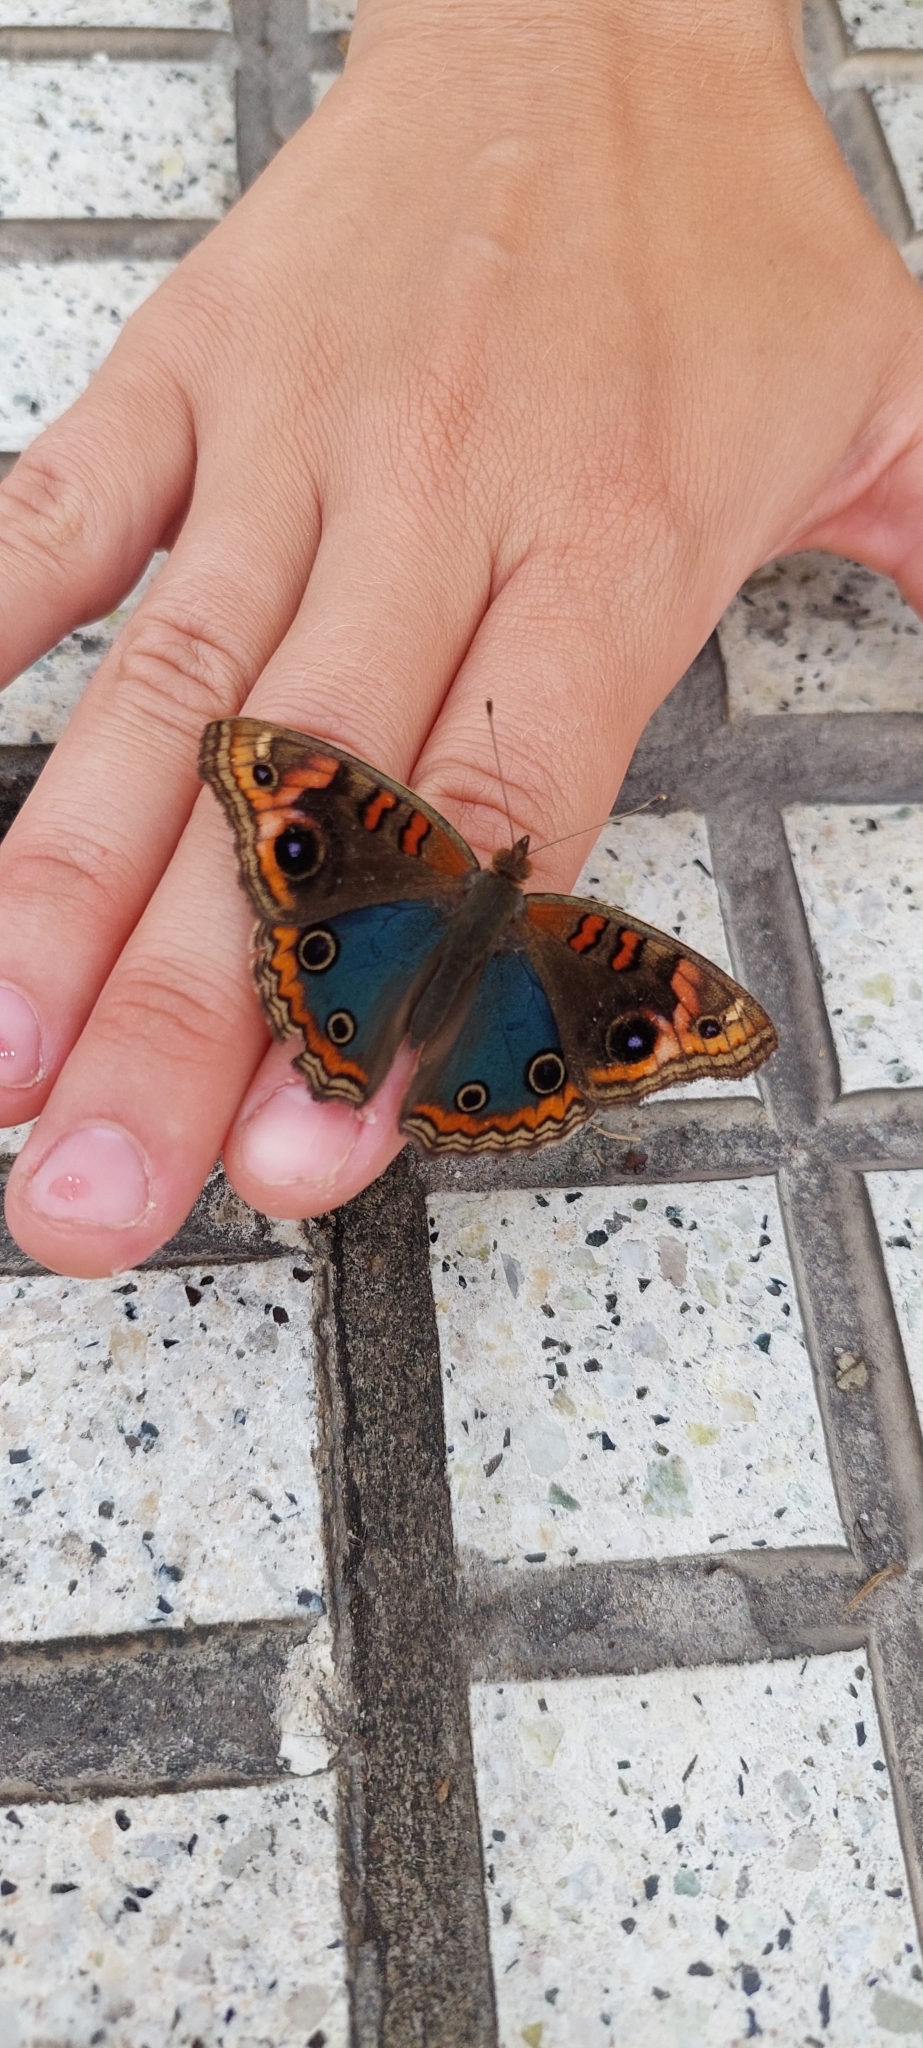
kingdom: Animalia
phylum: Arthropoda
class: Insecta
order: Lepidoptera
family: Nymphalidae
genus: Junonia
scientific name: Junonia lavinia
